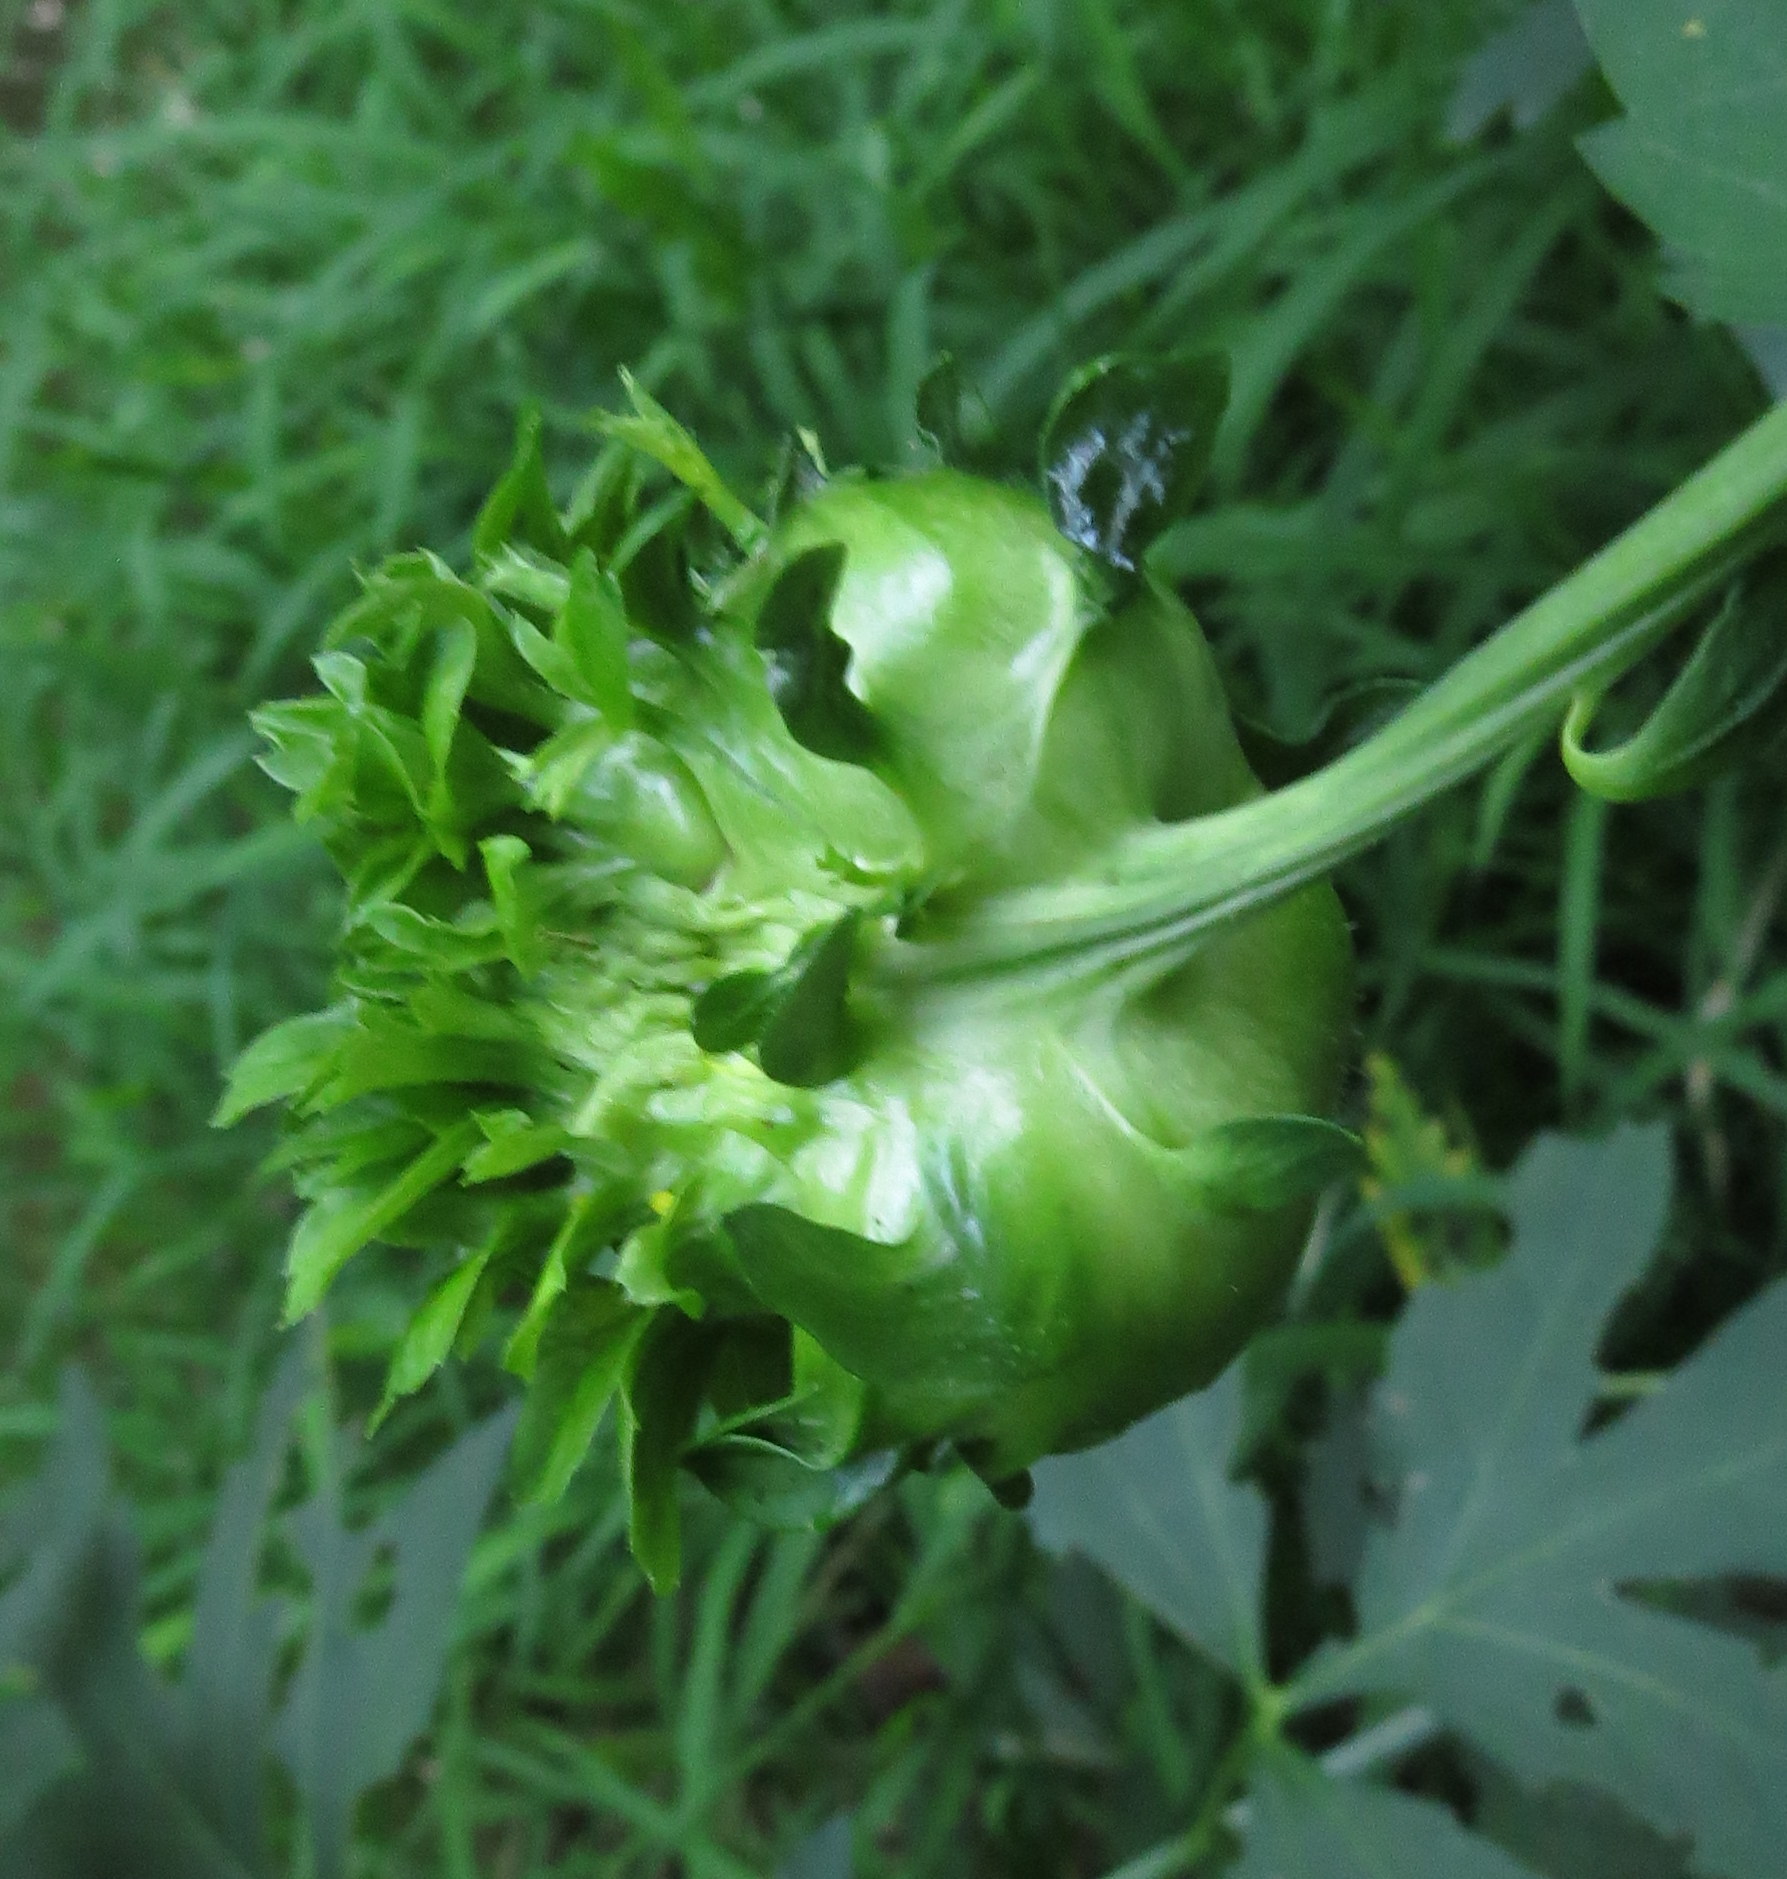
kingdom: Animalia
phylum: Arthropoda
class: Insecta
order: Diptera
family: Cecidomyiidae
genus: Asphondylia
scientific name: Asphondylia rudbeckiaeconspicua
